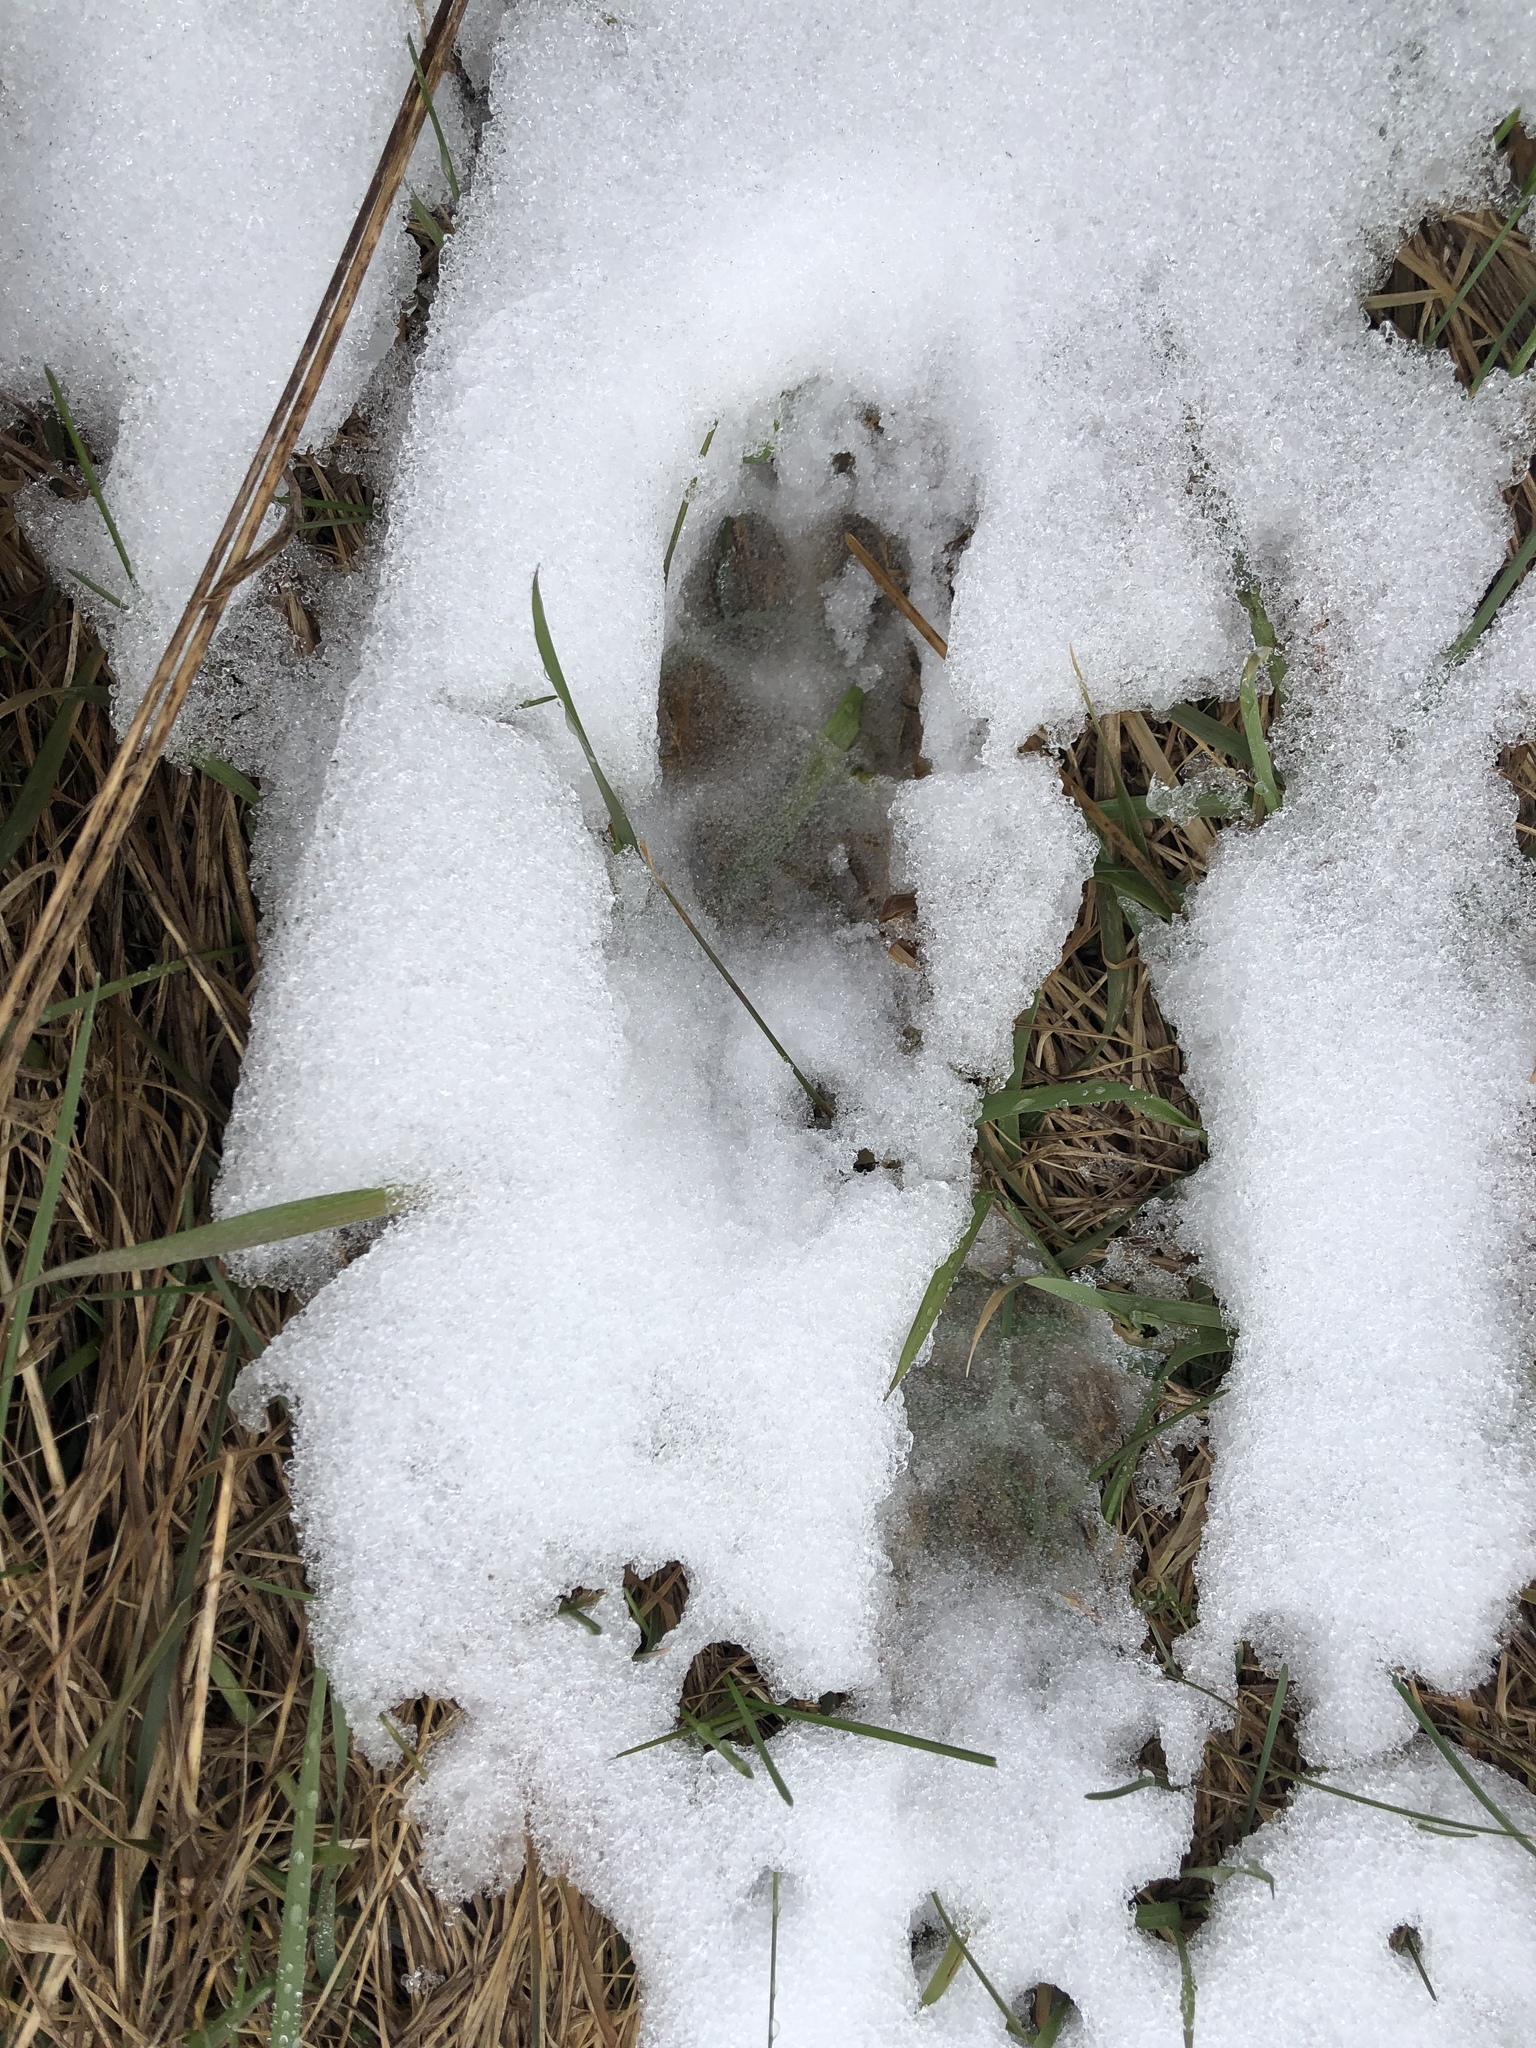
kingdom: Animalia
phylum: Chordata
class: Mammalia
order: Carnivora
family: Canidae
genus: Canis
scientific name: Canis latrans
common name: Coyote
